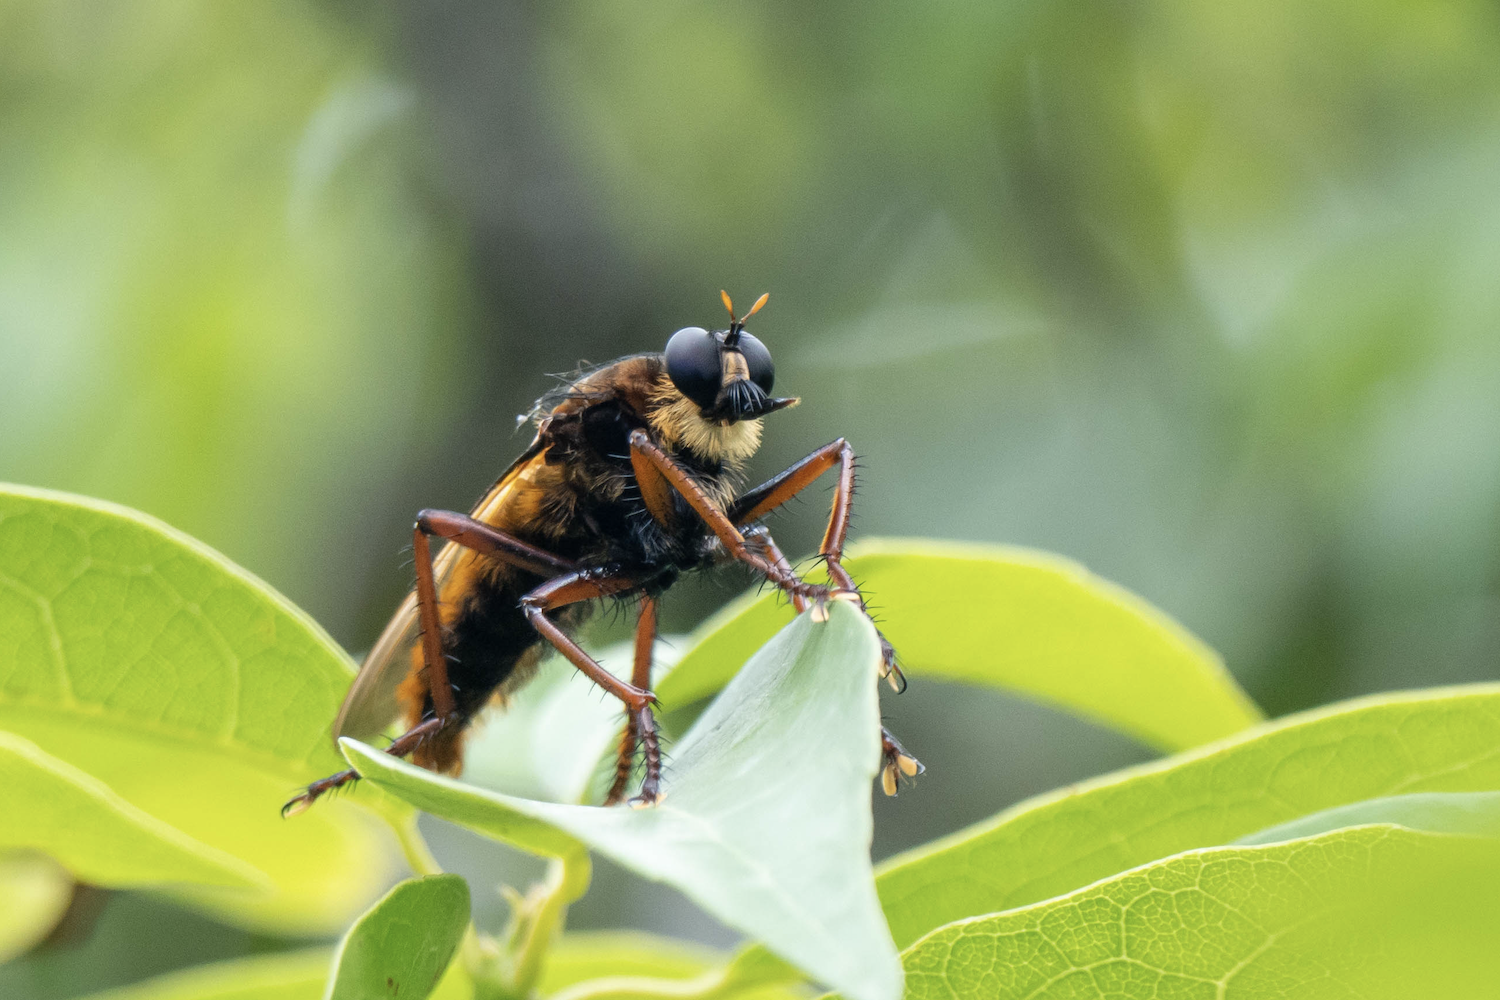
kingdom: Animalia
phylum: Arthropoda
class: Insecta
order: Diptera
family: Asilidae
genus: Microstylum
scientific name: Microstylum dux
